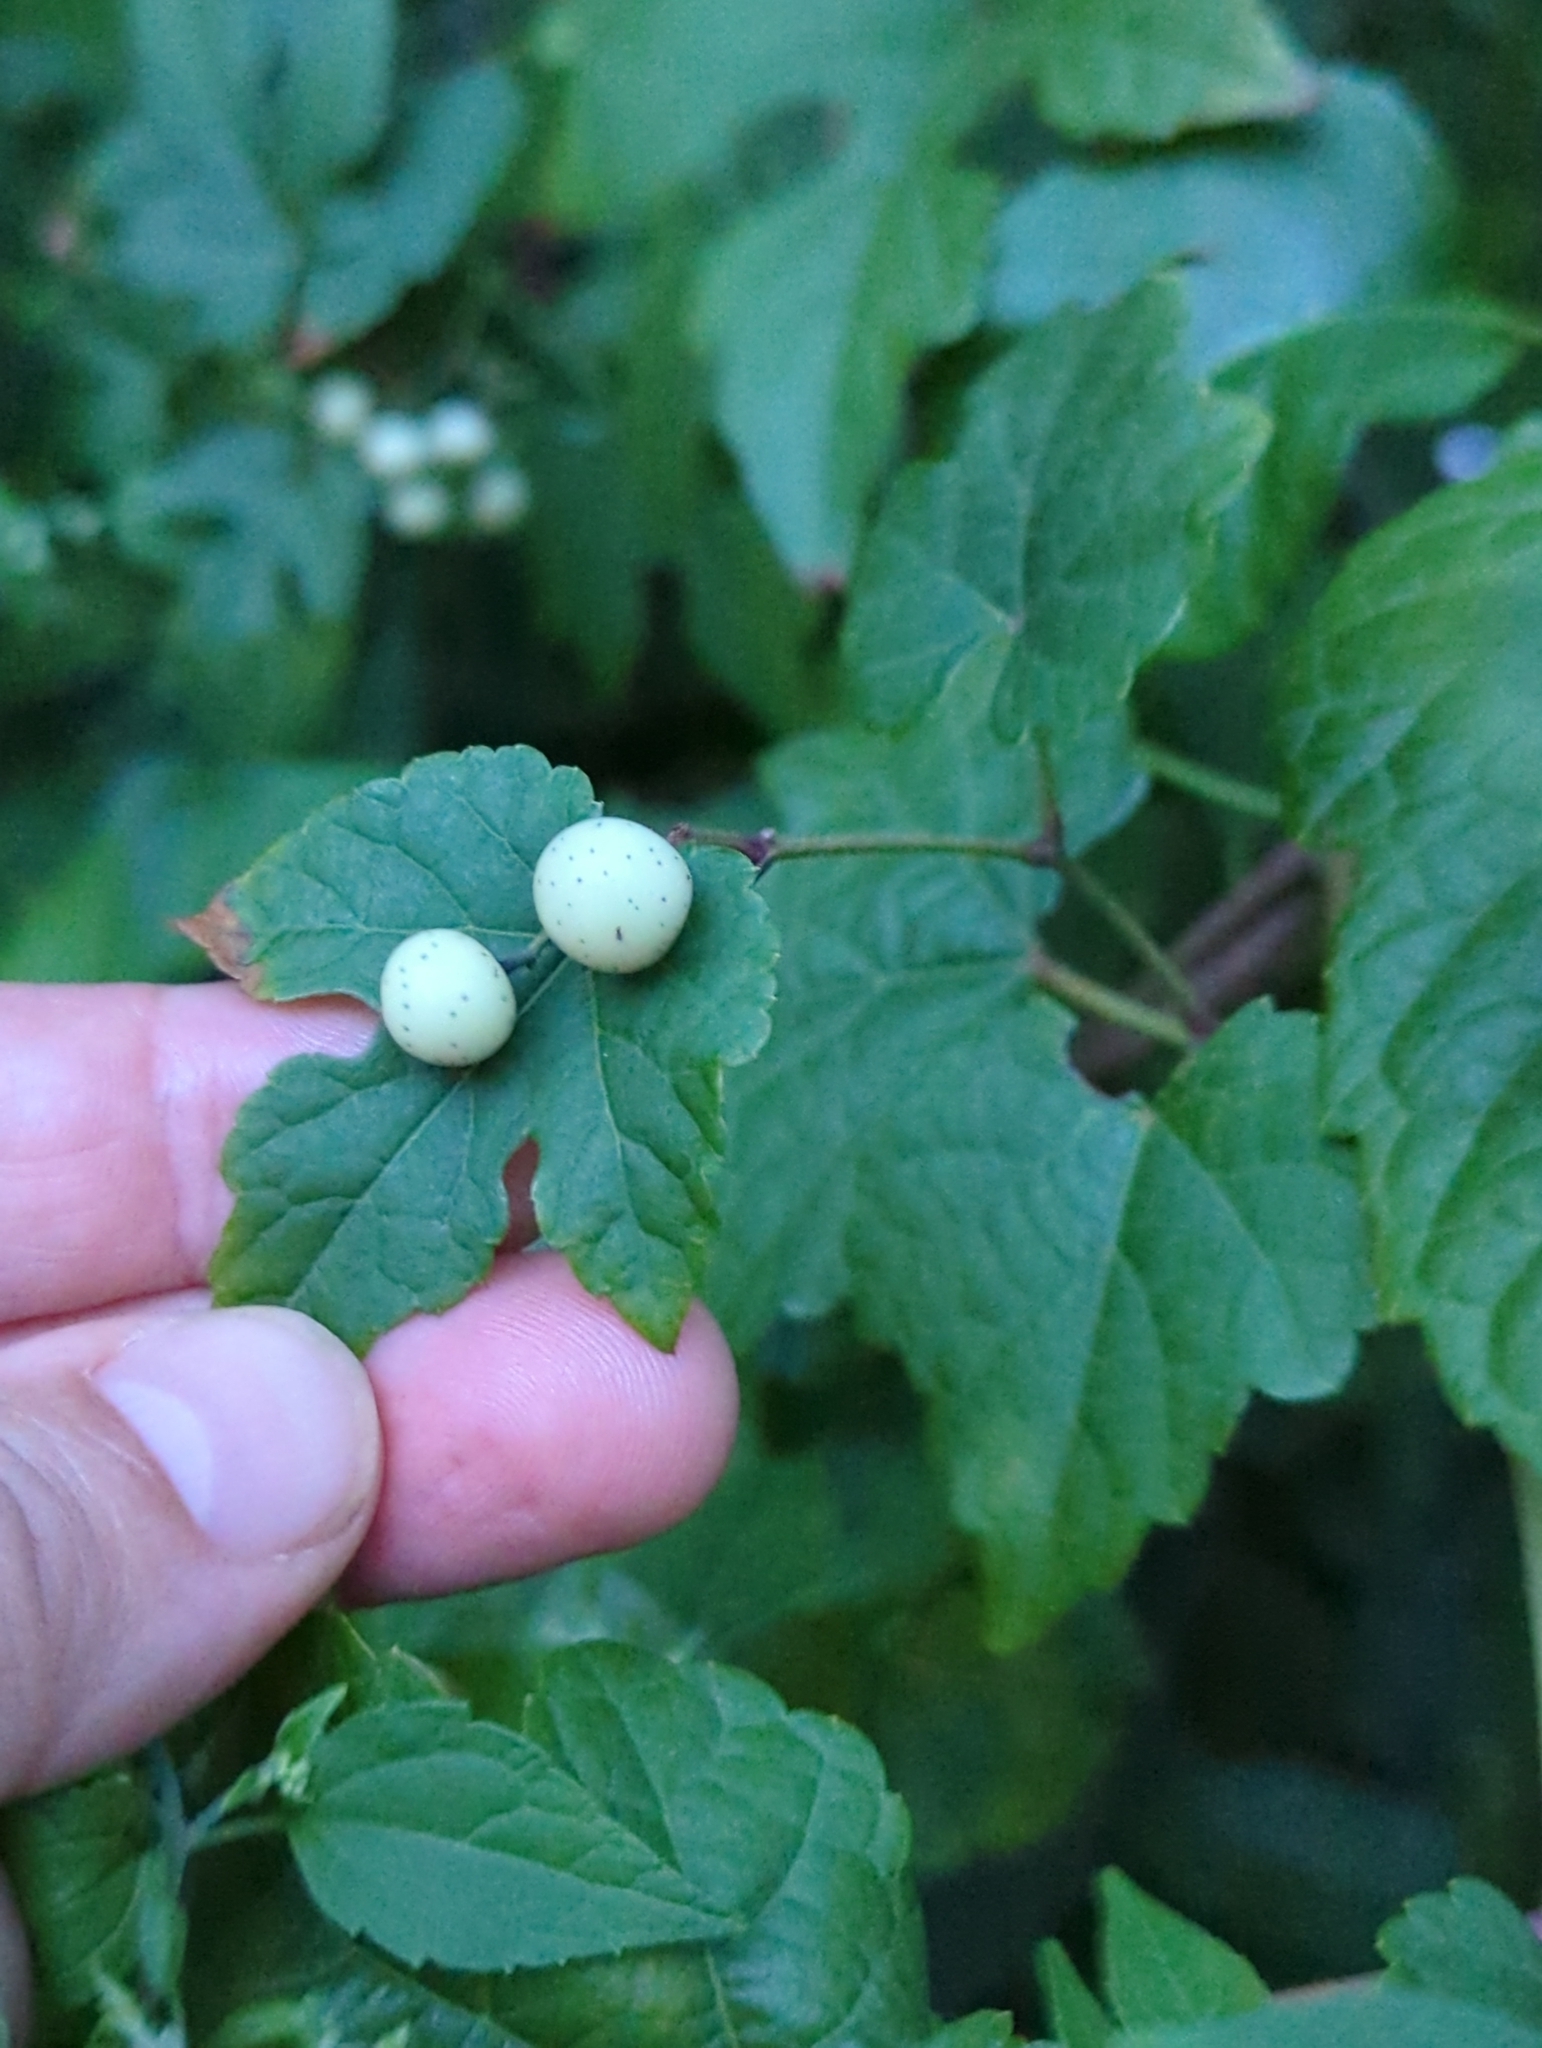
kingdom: Plantae
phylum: Tracheophyta
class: Magnoliopsida
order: Vitales
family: Vitaceae
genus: Ampelopsis
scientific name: Ampelopsis glandulosa
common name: Amur peppervine
